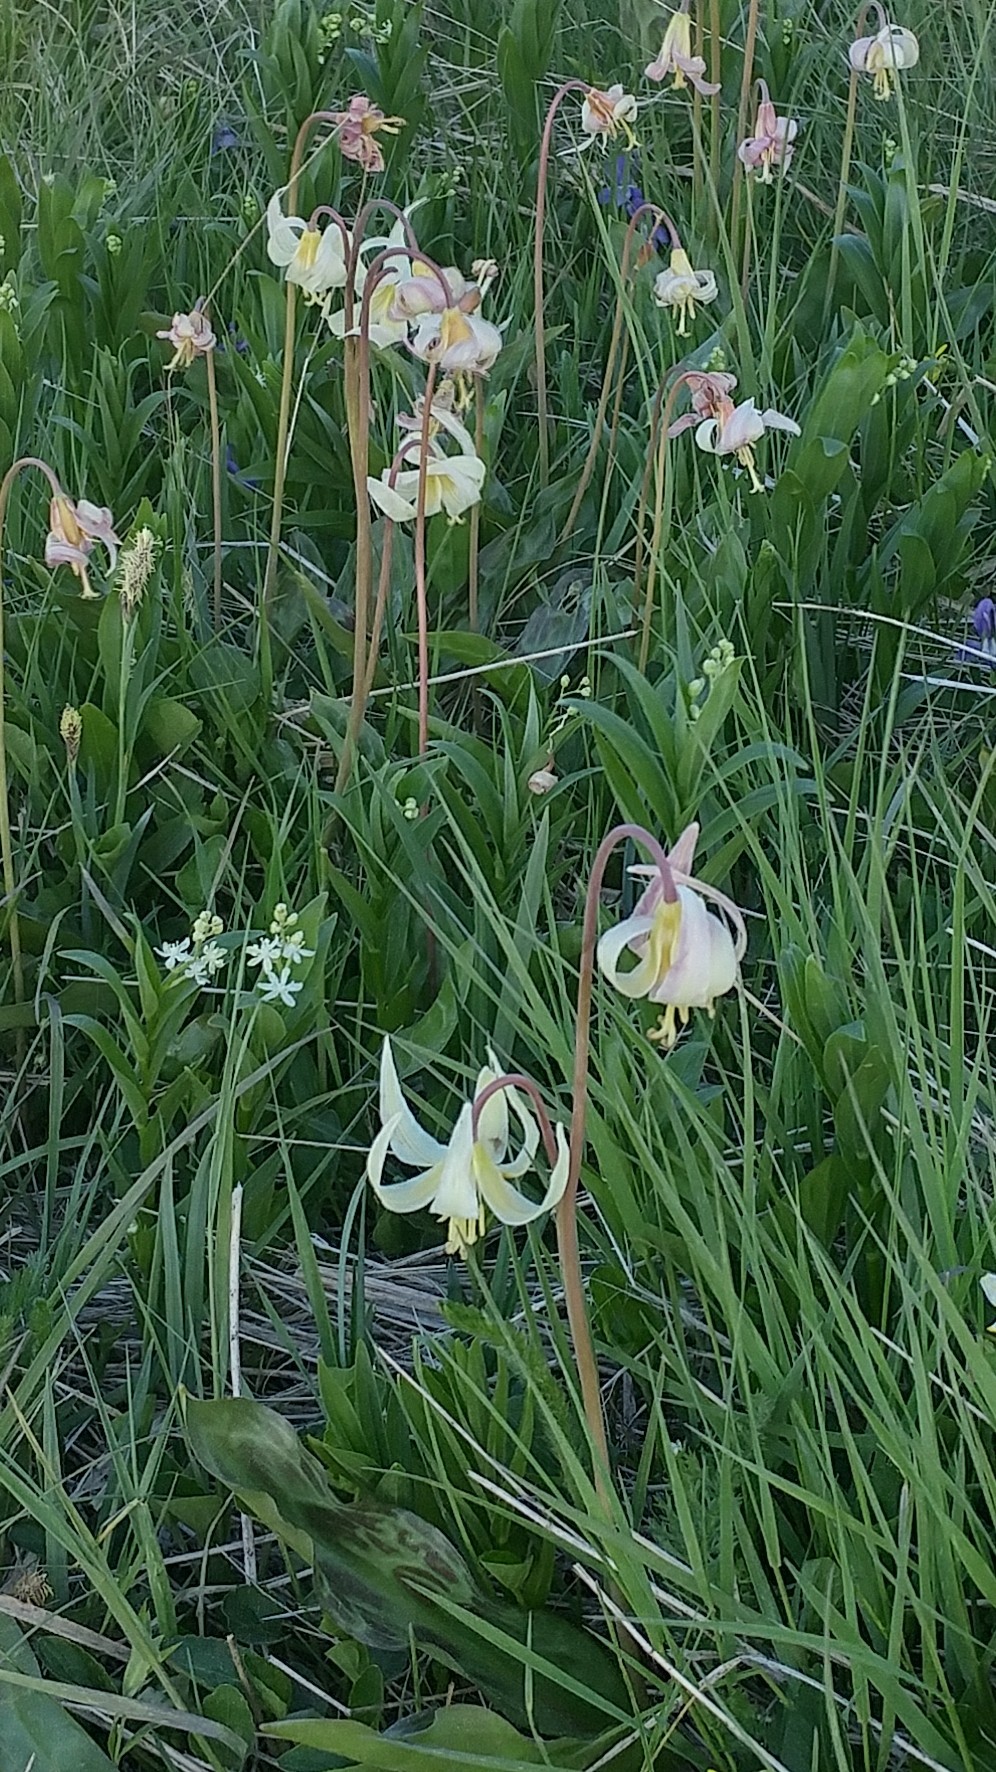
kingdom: Plantae
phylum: Tracheophyta
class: Liliopsida
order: Liliales
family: Liliaceae
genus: Erythronium
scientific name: Erythronium oregonum
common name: Giant adder's-tongue
